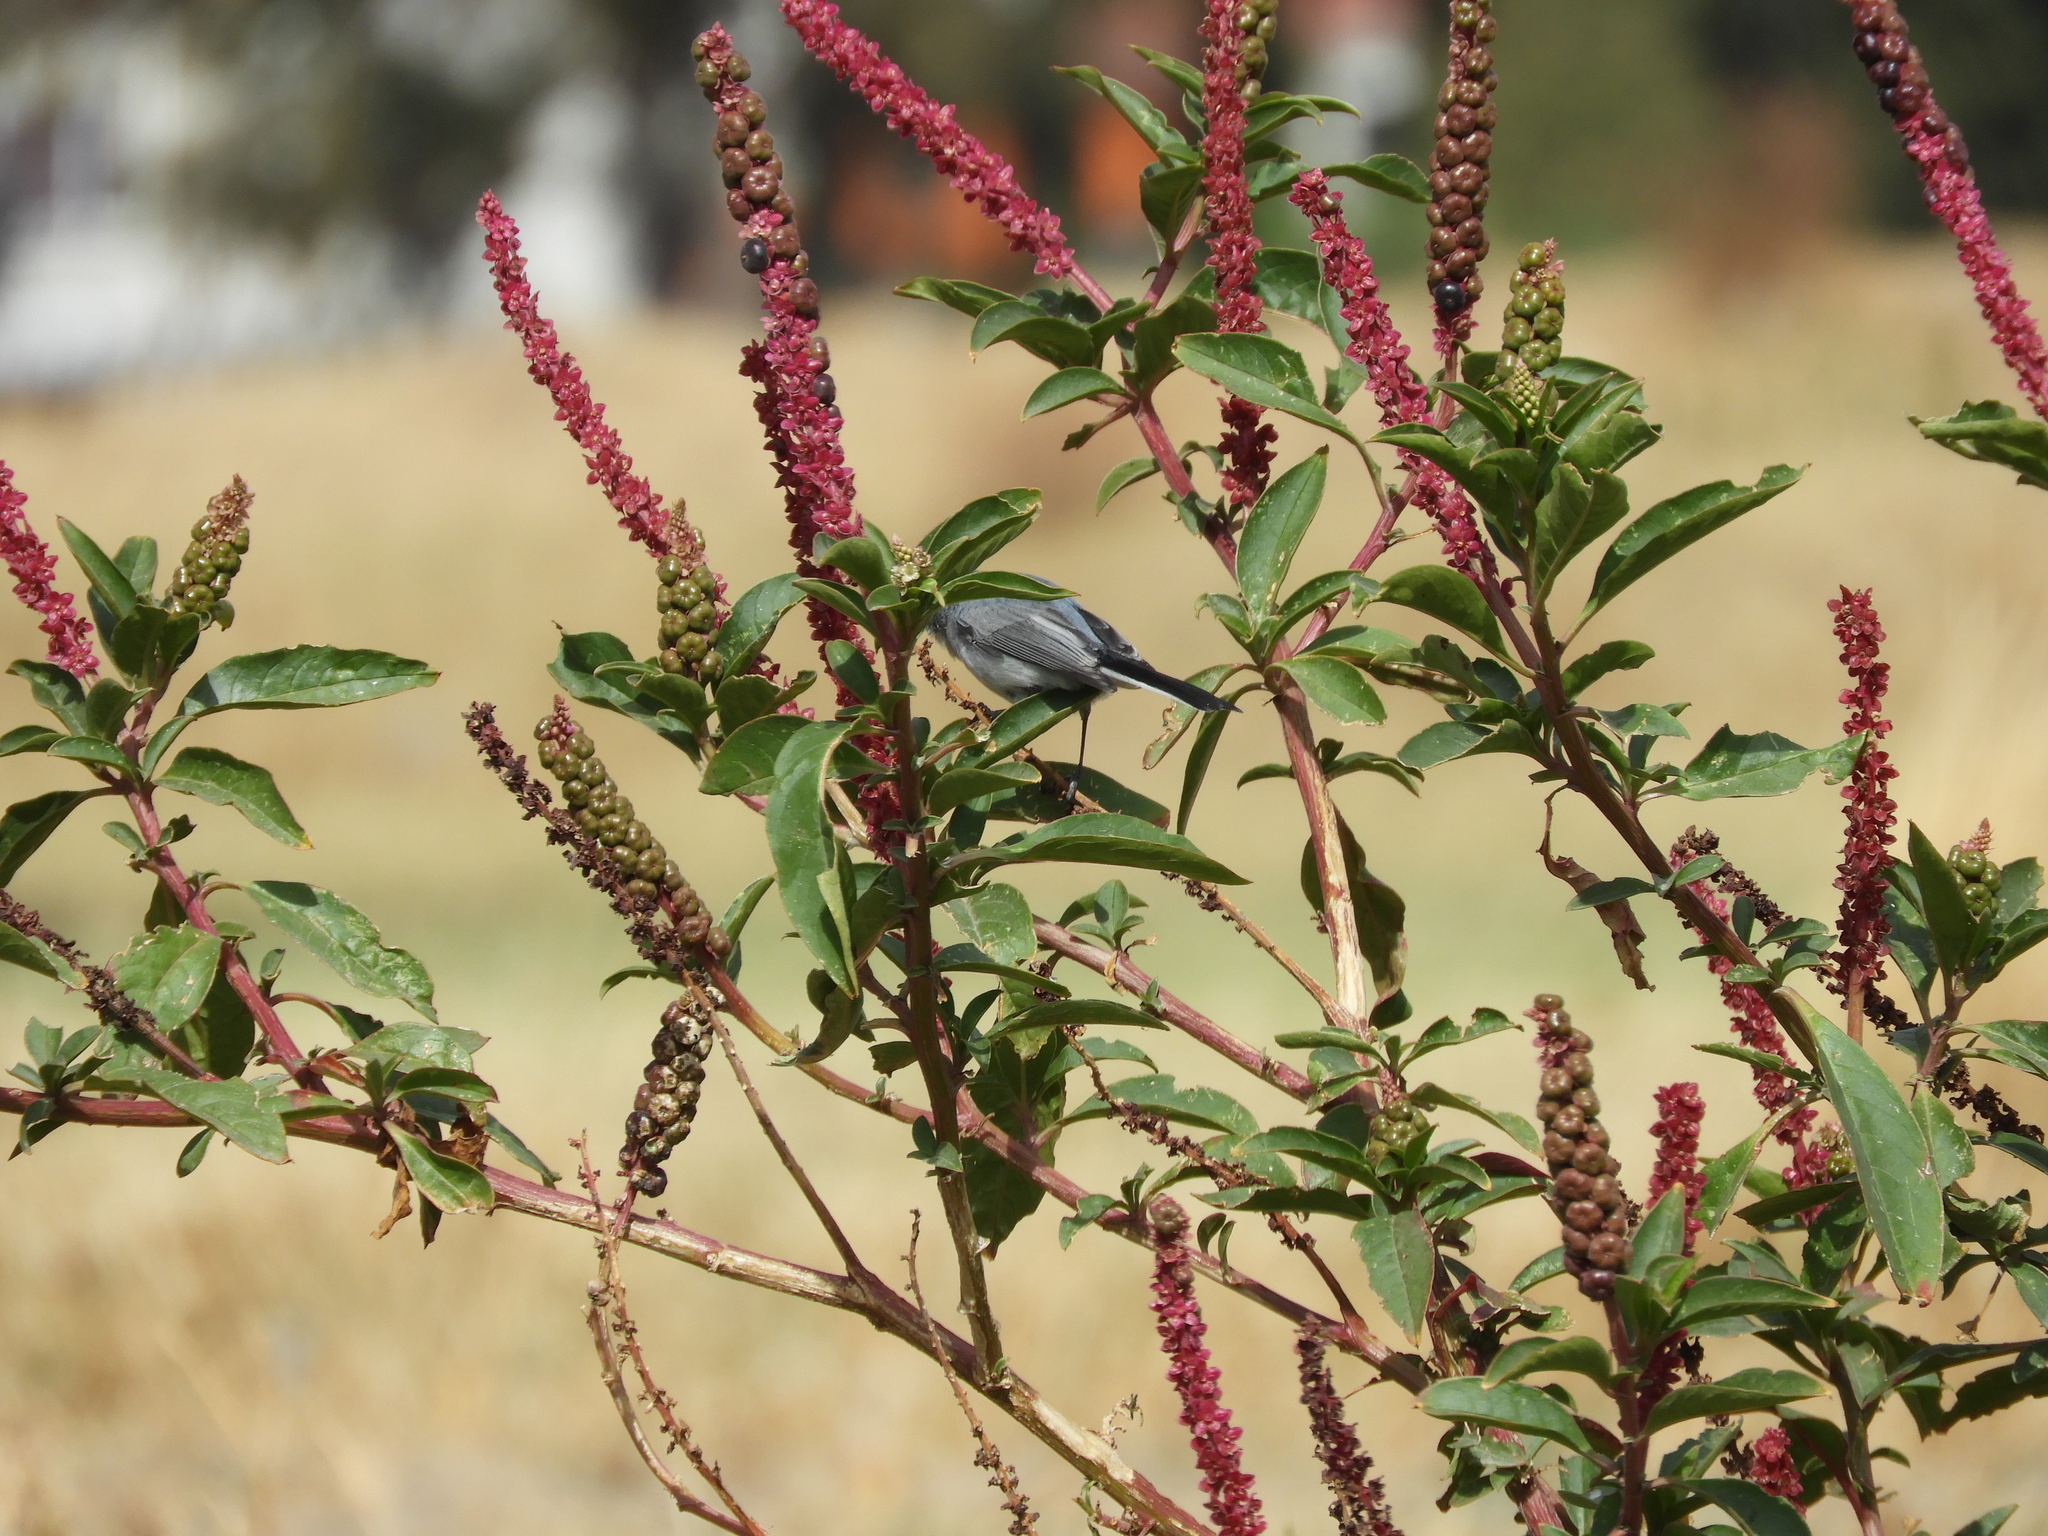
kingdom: Animalia
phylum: Chordata
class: Aves
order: Passeriformes
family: Polioptilidae
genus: Polioptila
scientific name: Polioptila caerulea
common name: Blue-gray gnatcatcher
